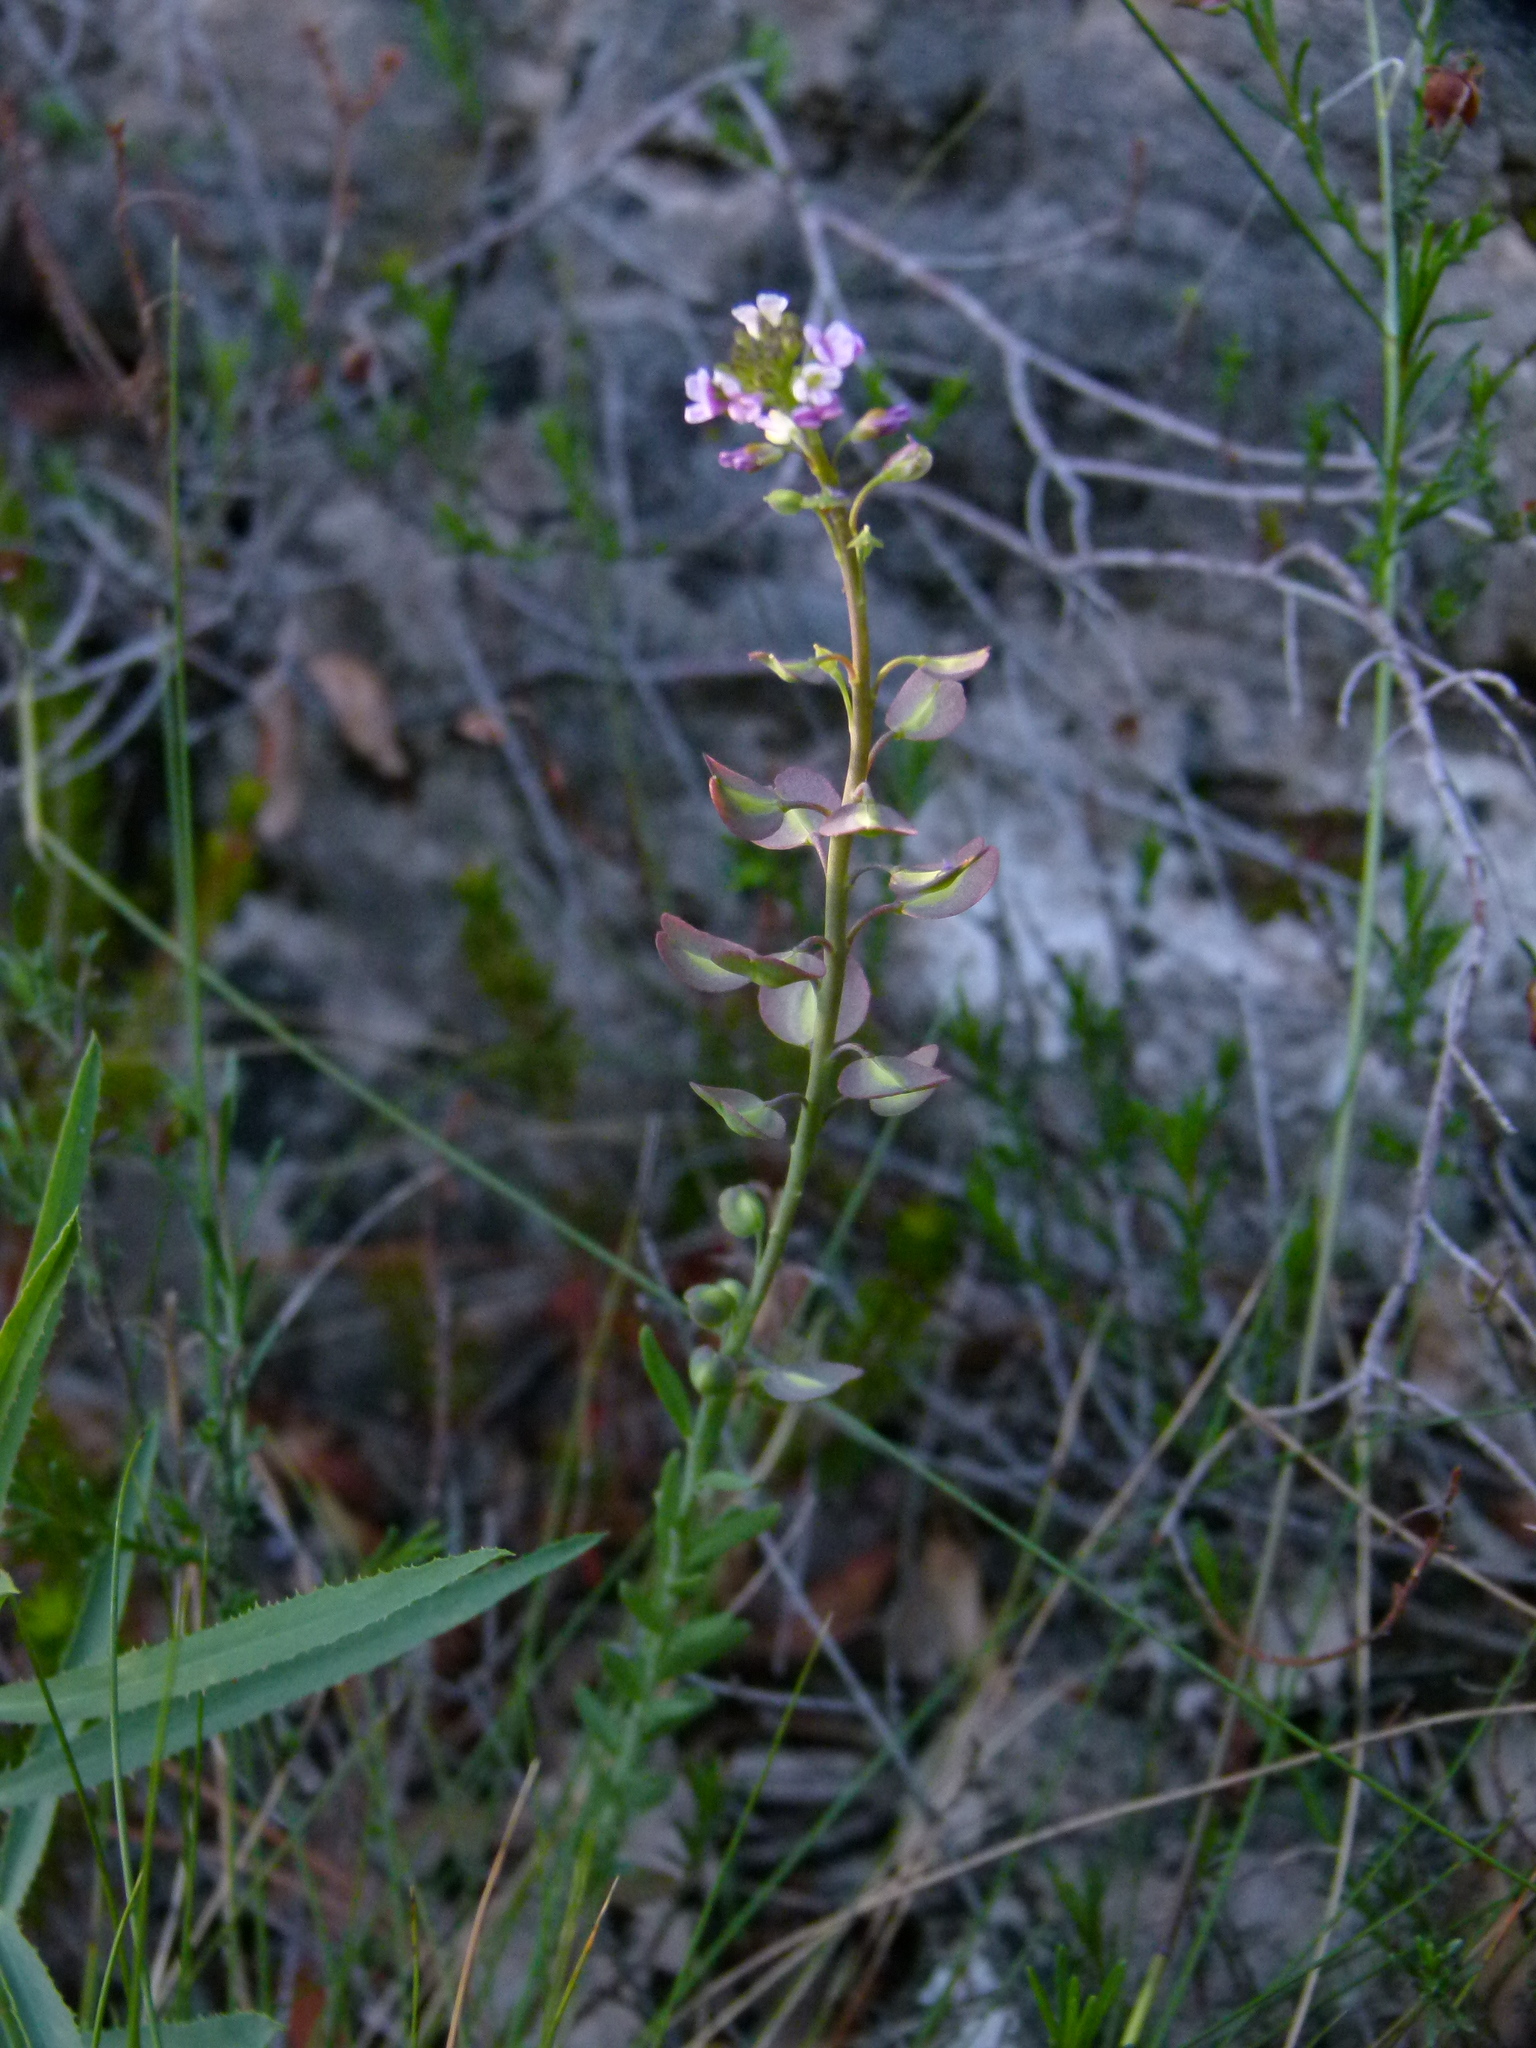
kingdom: Plantae
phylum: Tracheophyta
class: Magnoliopsida
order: Brassicales
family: Brassicaceae
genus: Aethionema
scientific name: Aethionema saxatile
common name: Burnt candytuft
